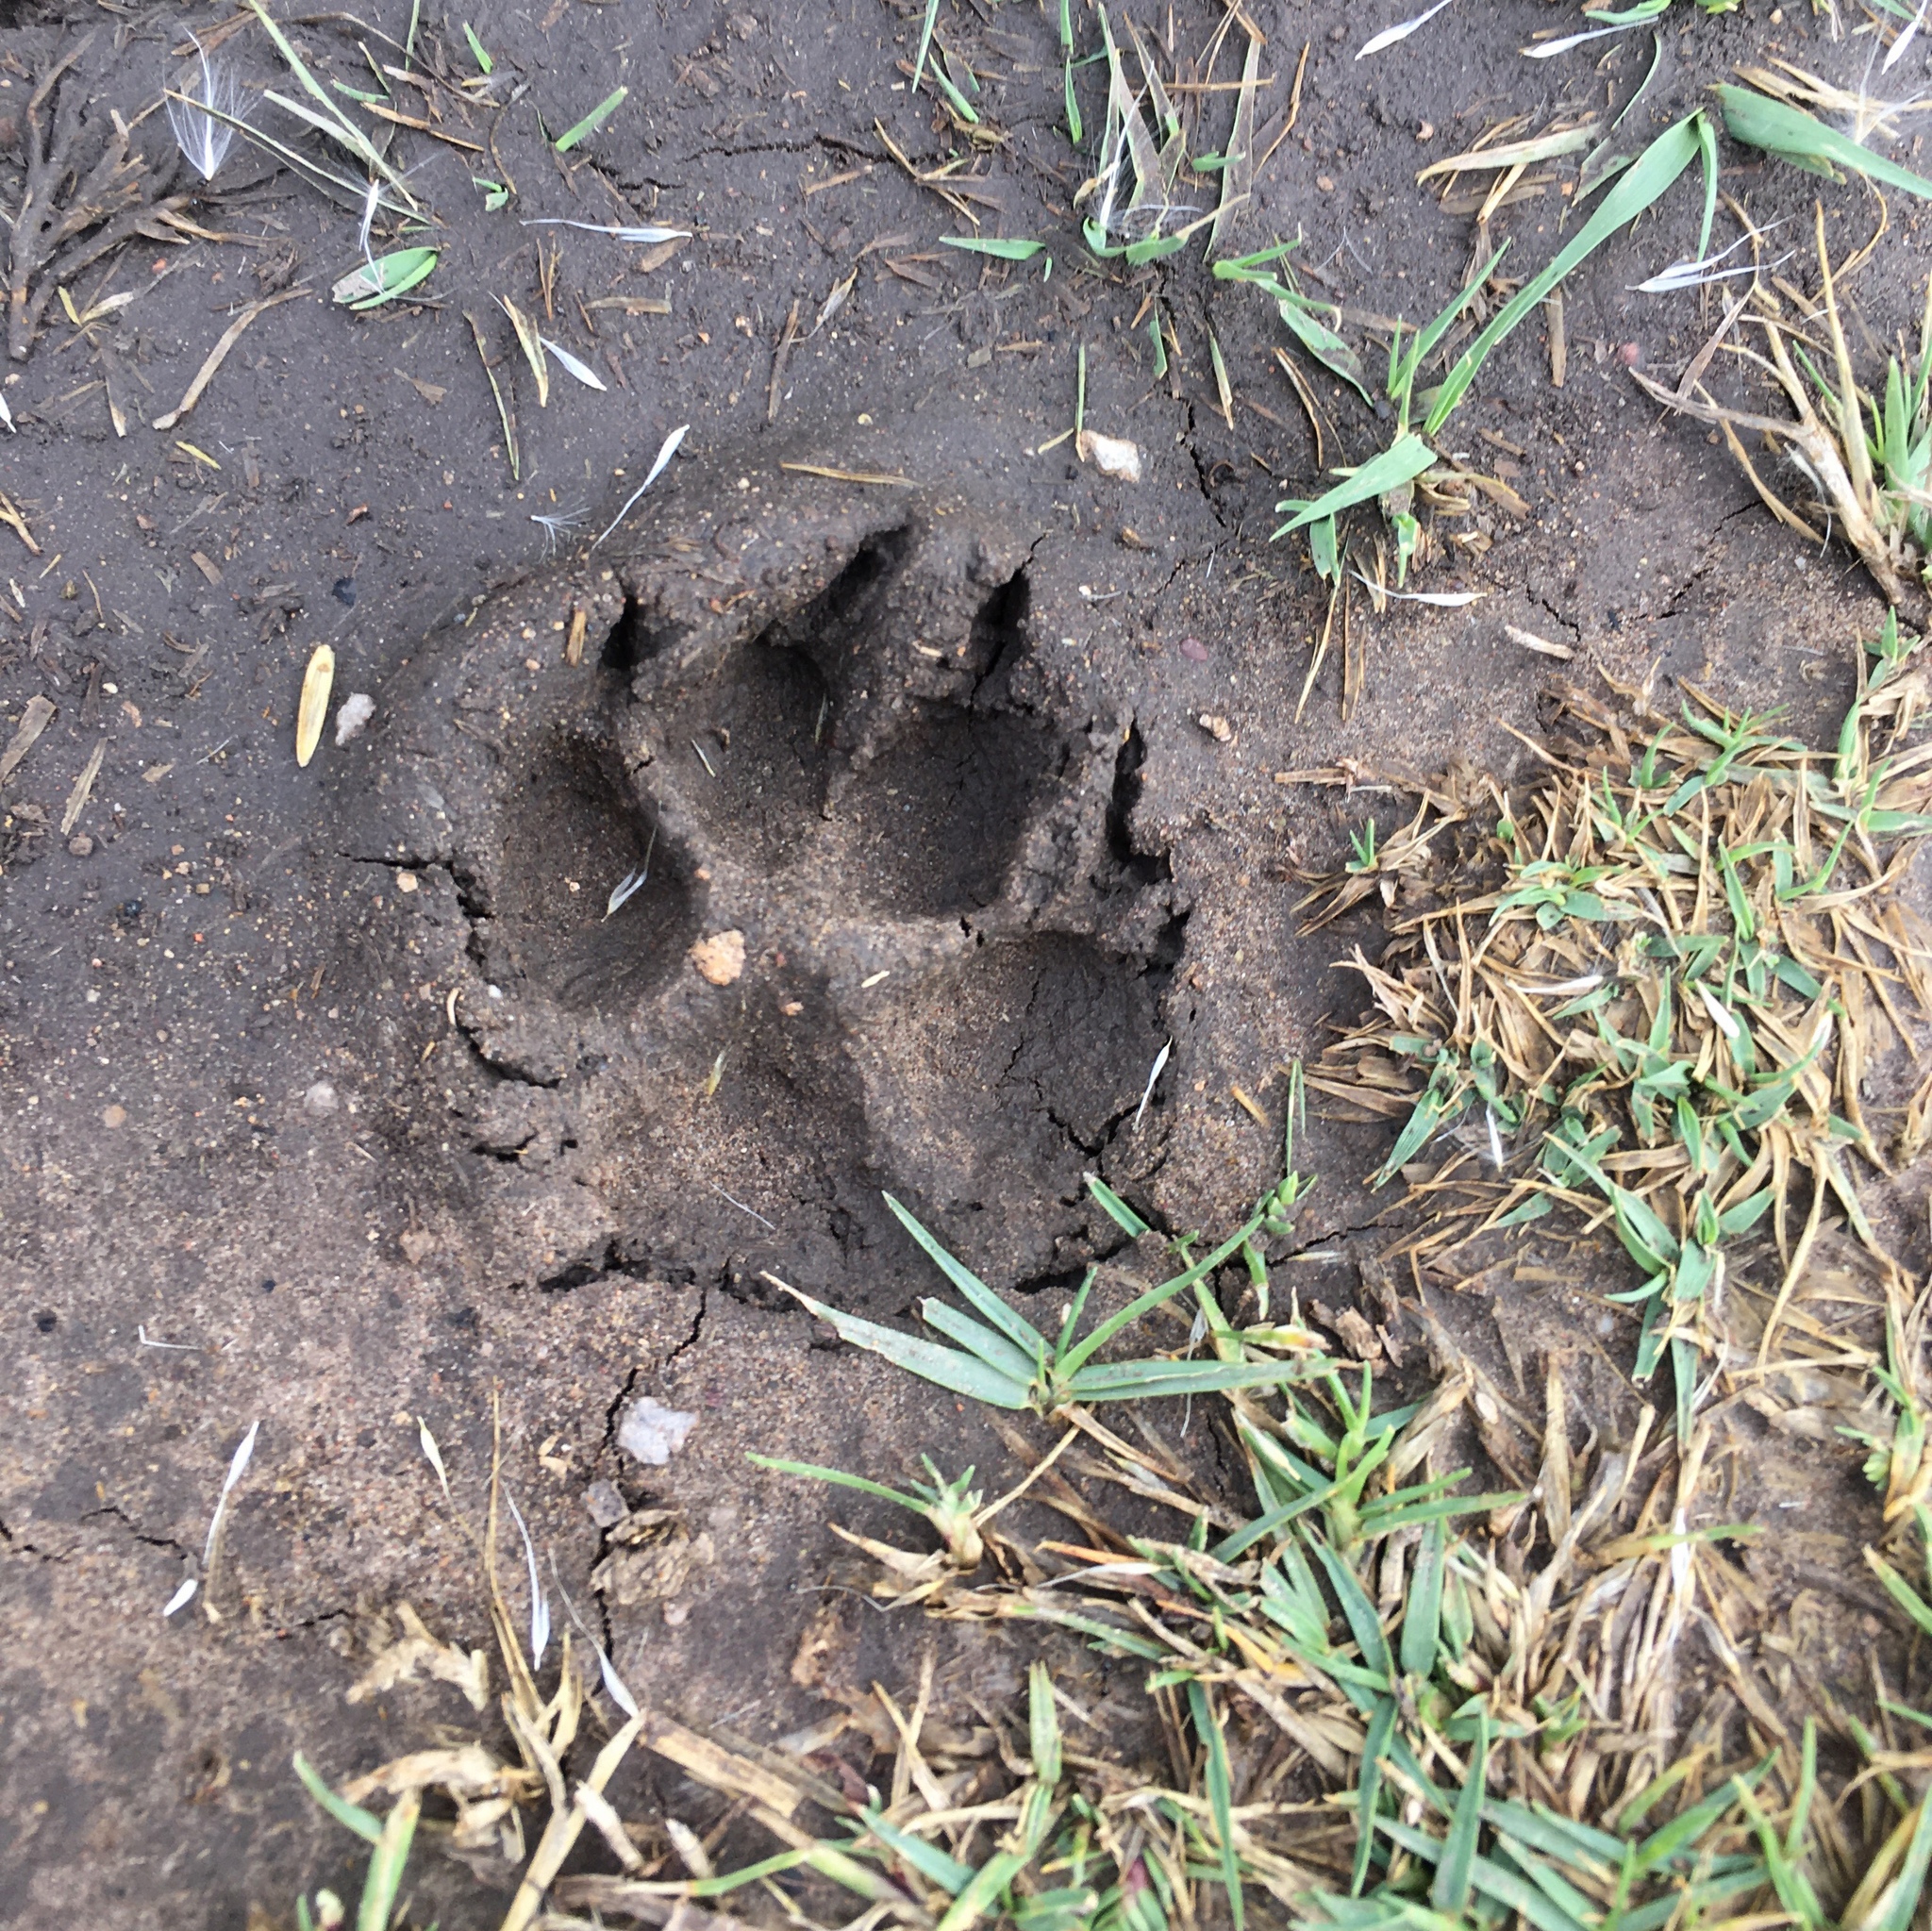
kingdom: Animalia
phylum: Chordata
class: Mammalia
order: Carnivora
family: Canidae
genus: Canis
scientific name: Canis lupus
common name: Gray wolf
